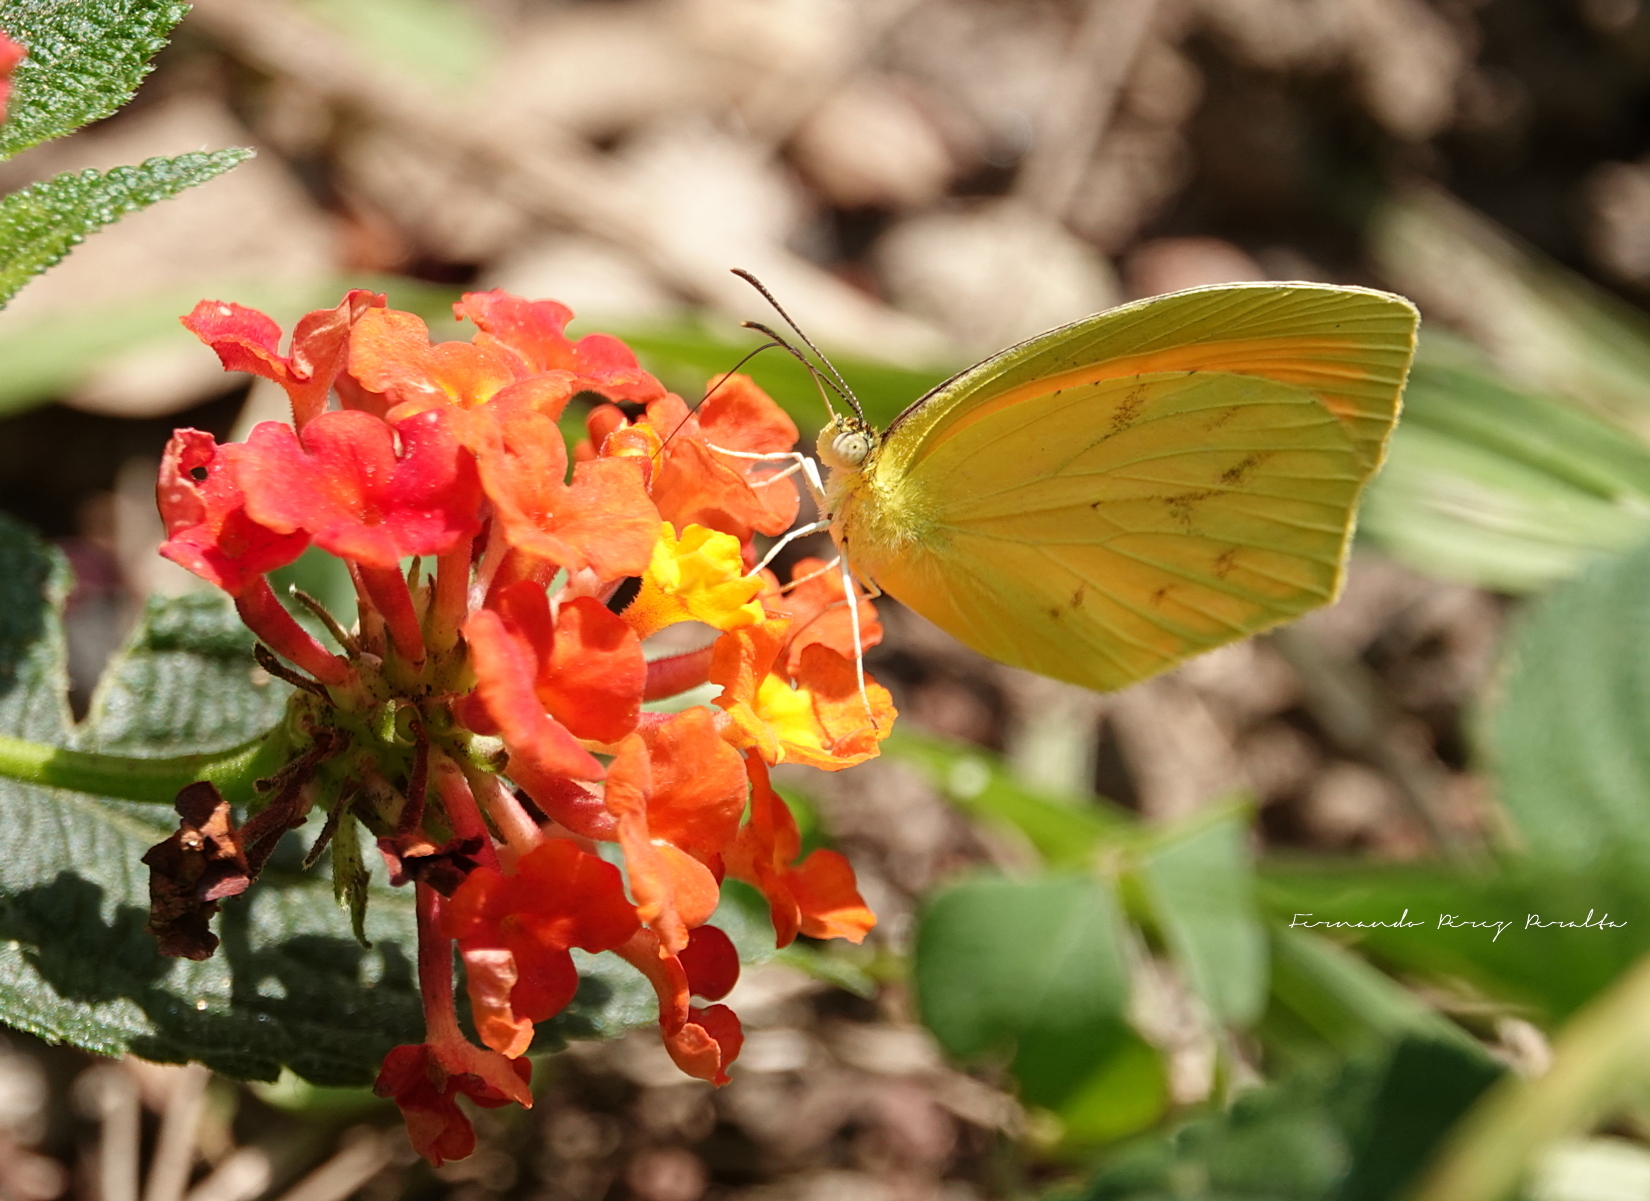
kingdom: Animalia
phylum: Arthropoda
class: Insecta
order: Lepidoptera
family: Pieridae
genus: Pyrisitia
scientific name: Pyrisitia proterpia
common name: Tailed orange
